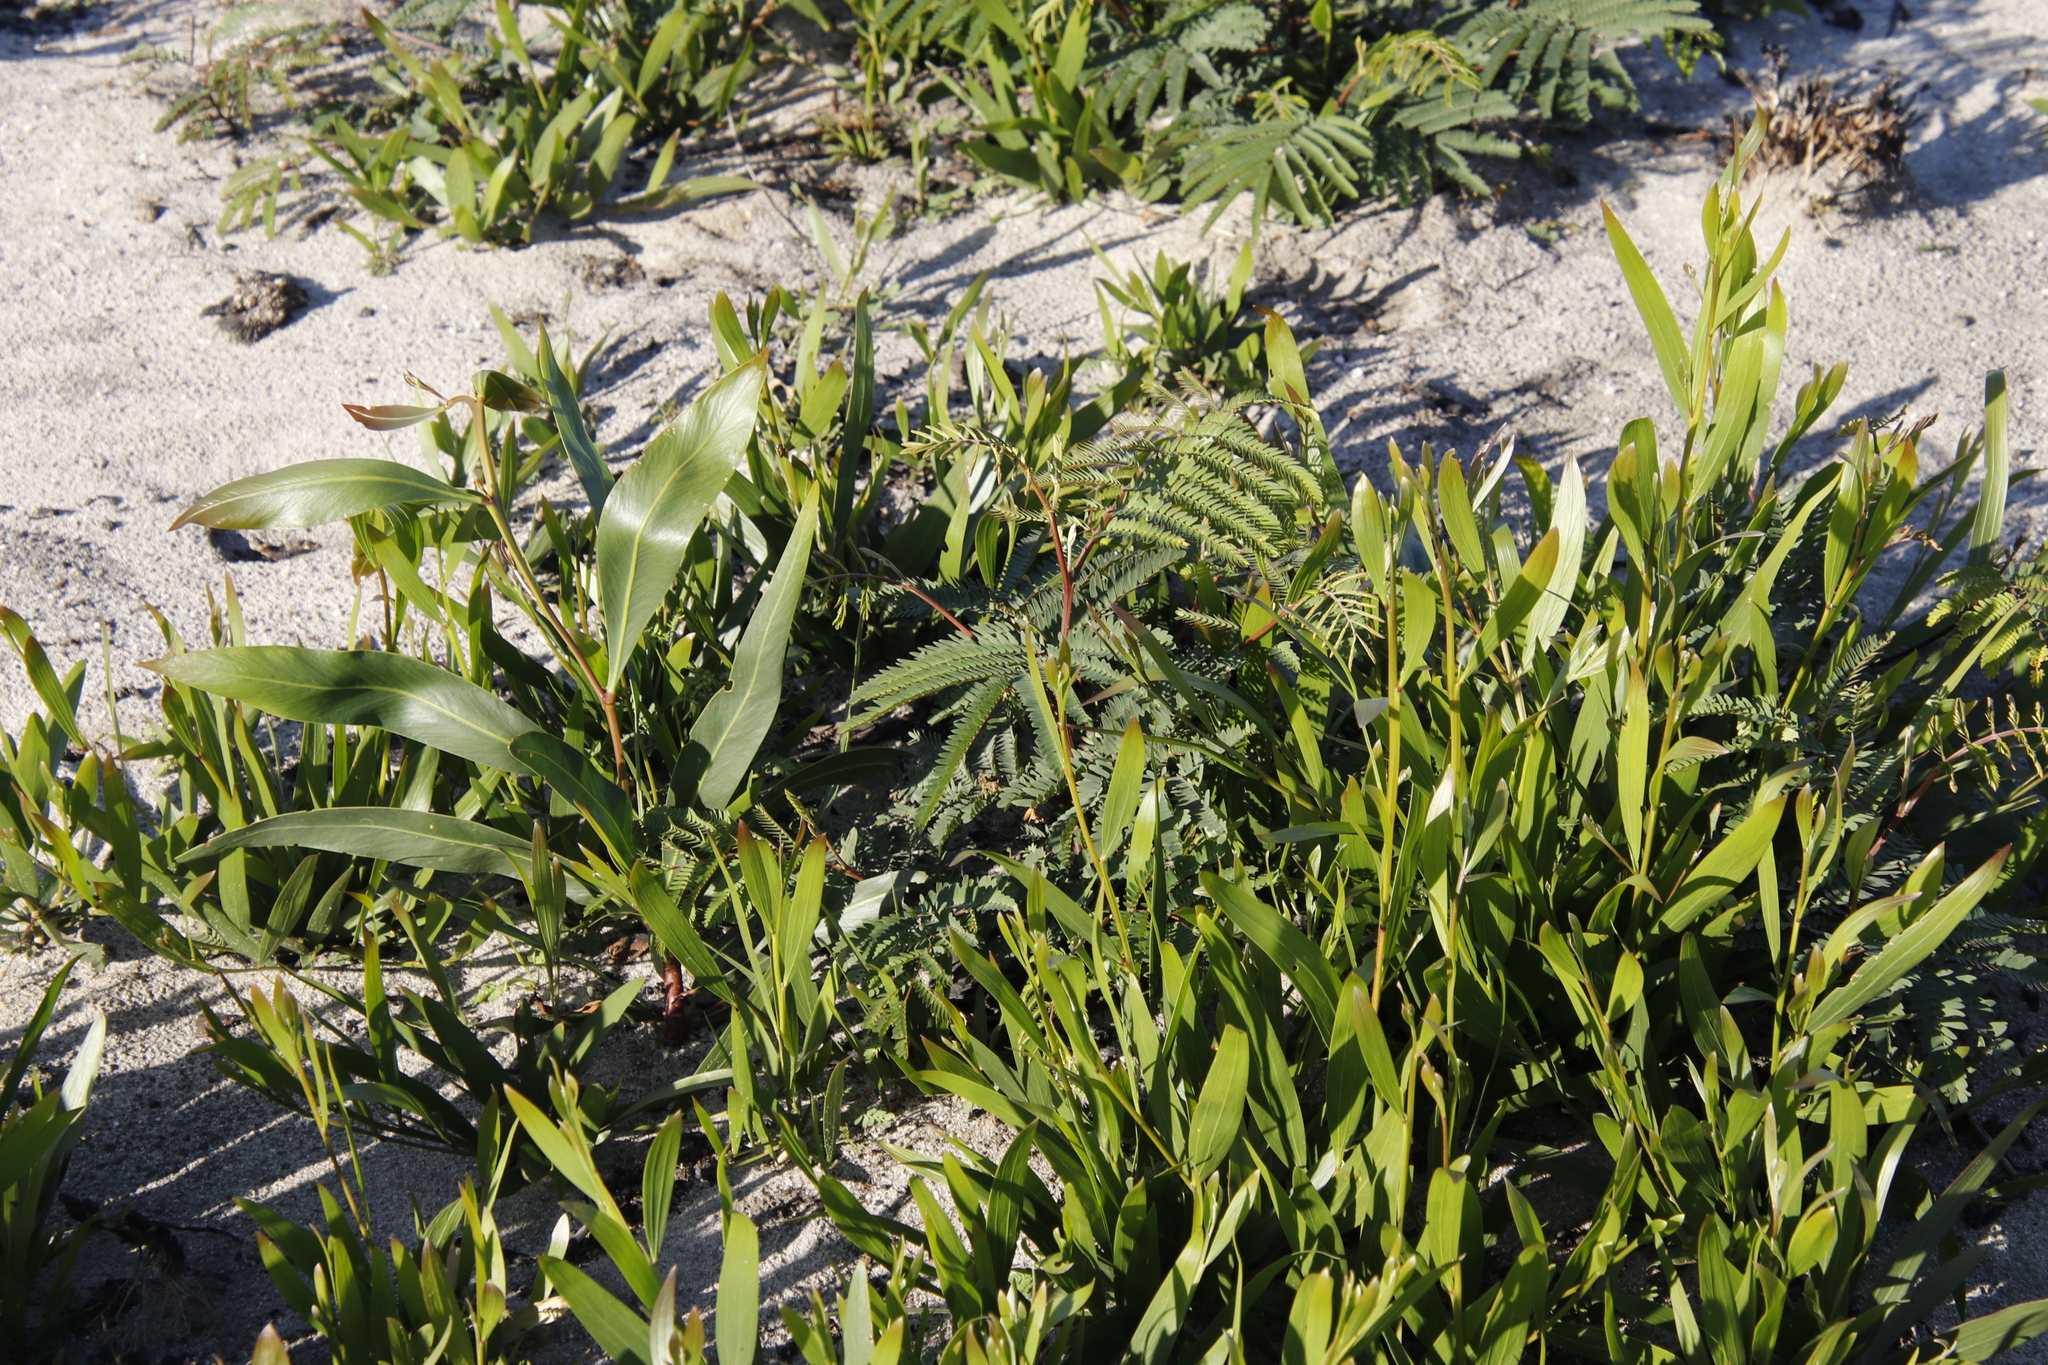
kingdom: Plantae
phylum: Tracheophyta
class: Magnoliopsida
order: Fabales
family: Fabaceae
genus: Acacia
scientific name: Acacia longifolia
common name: Sydney golden wattle
